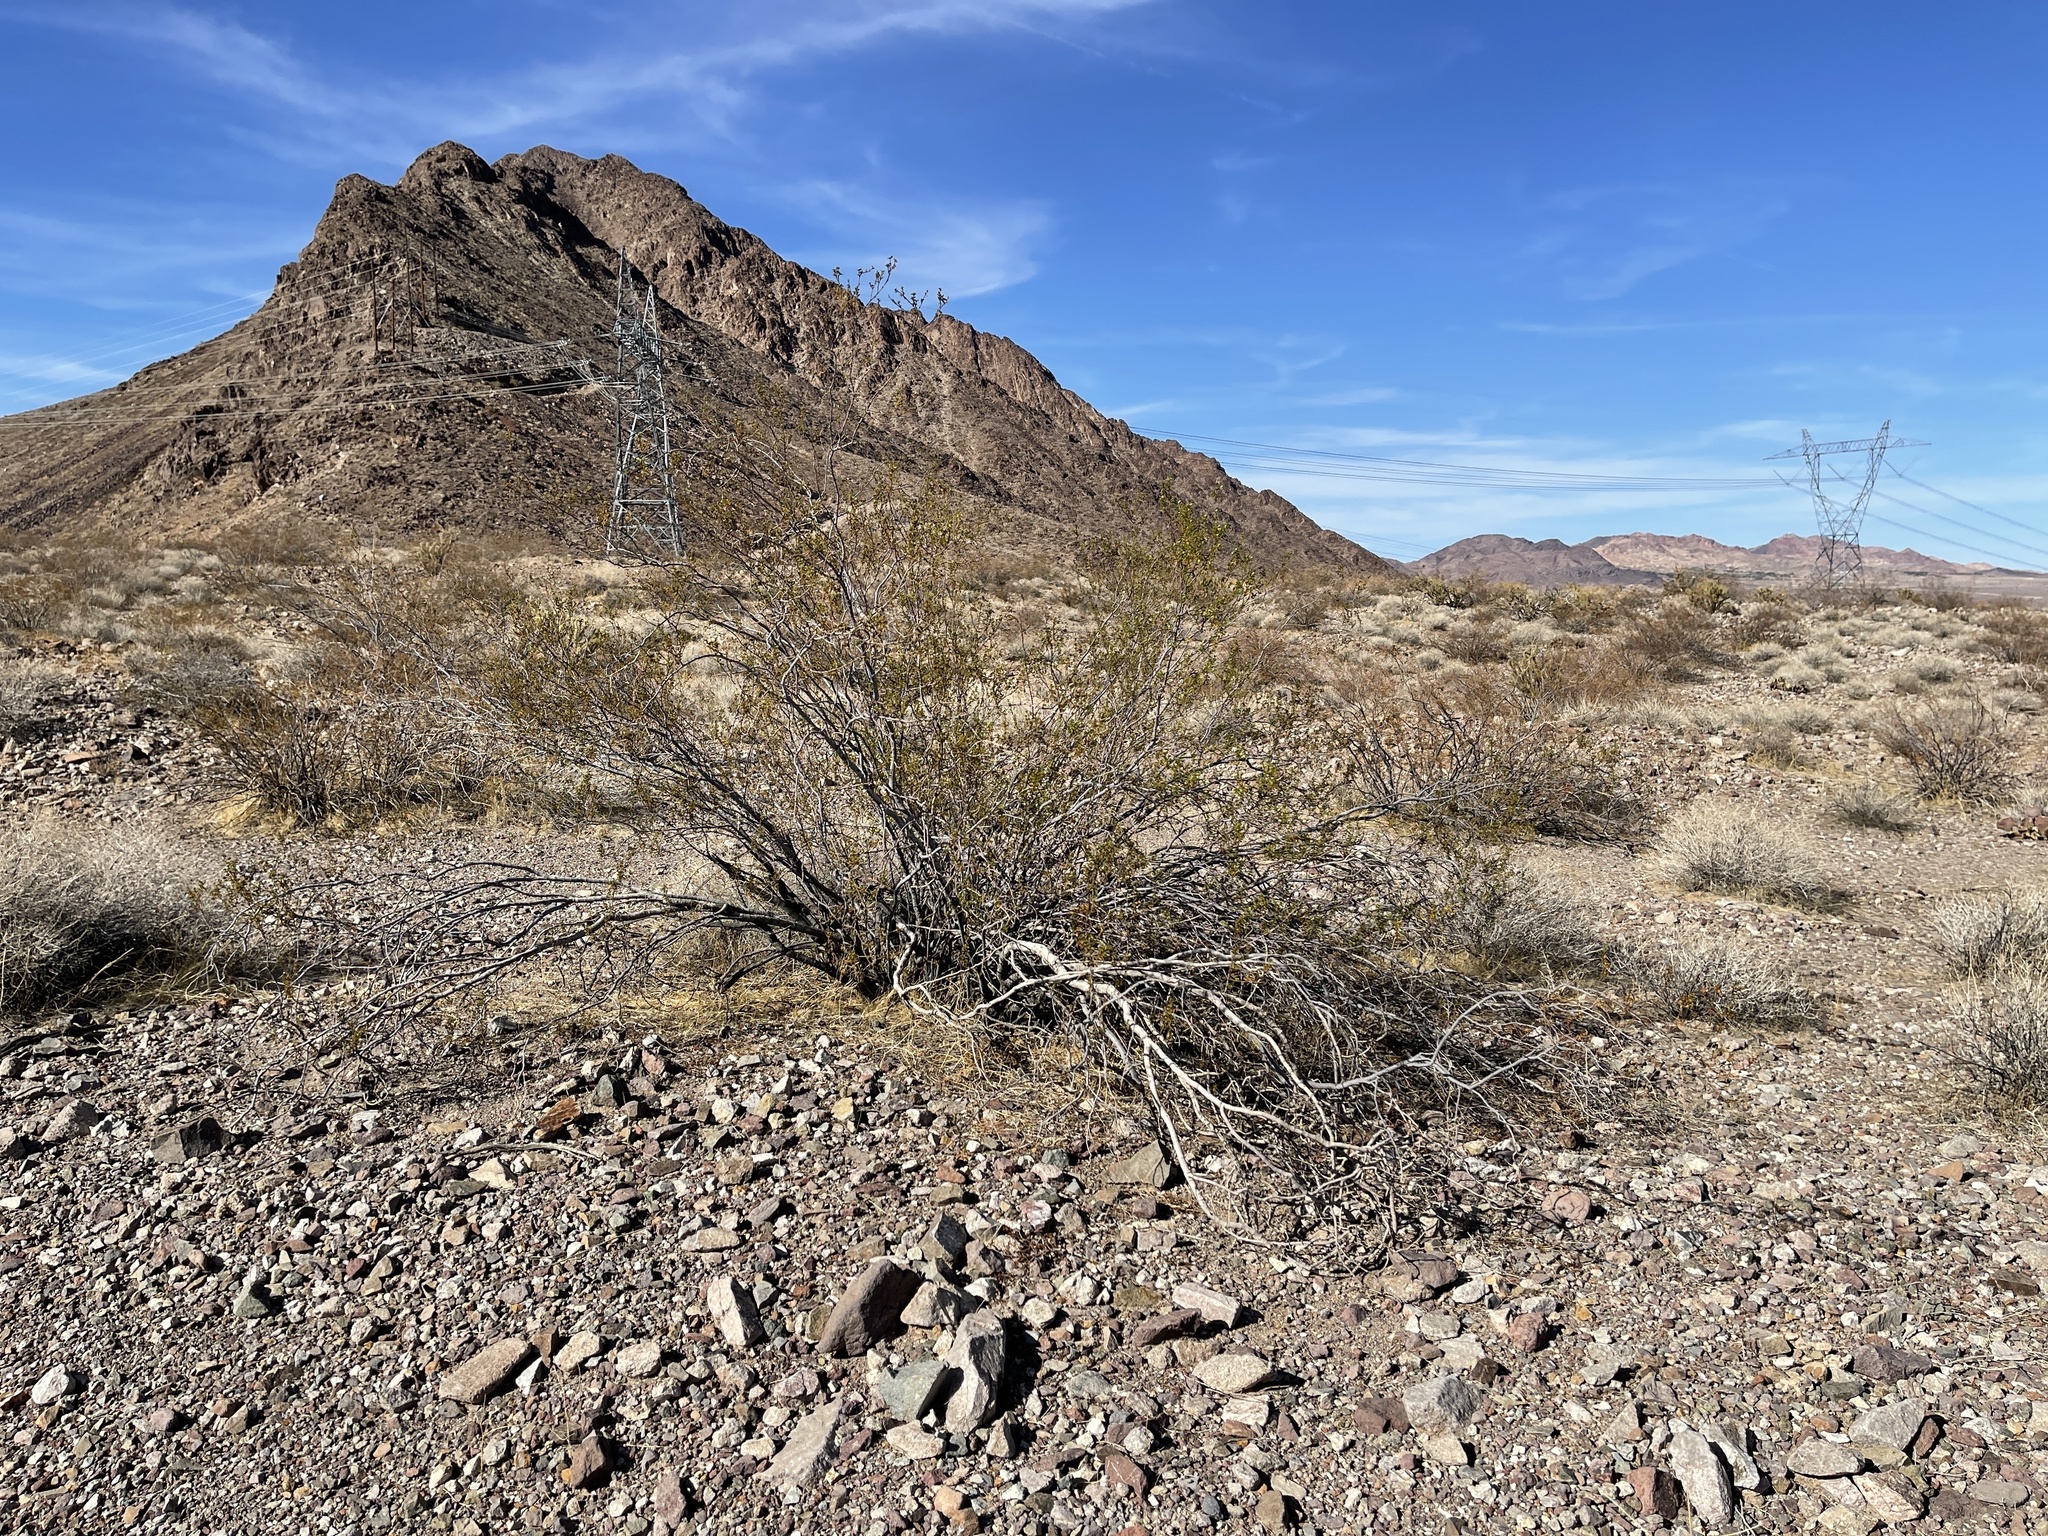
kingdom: Plantae
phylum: Tracheophyta
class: Magnoliopsida
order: Zygophyllales
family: Zygophyllaceae
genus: Larrea
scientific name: Larrea tridentata
